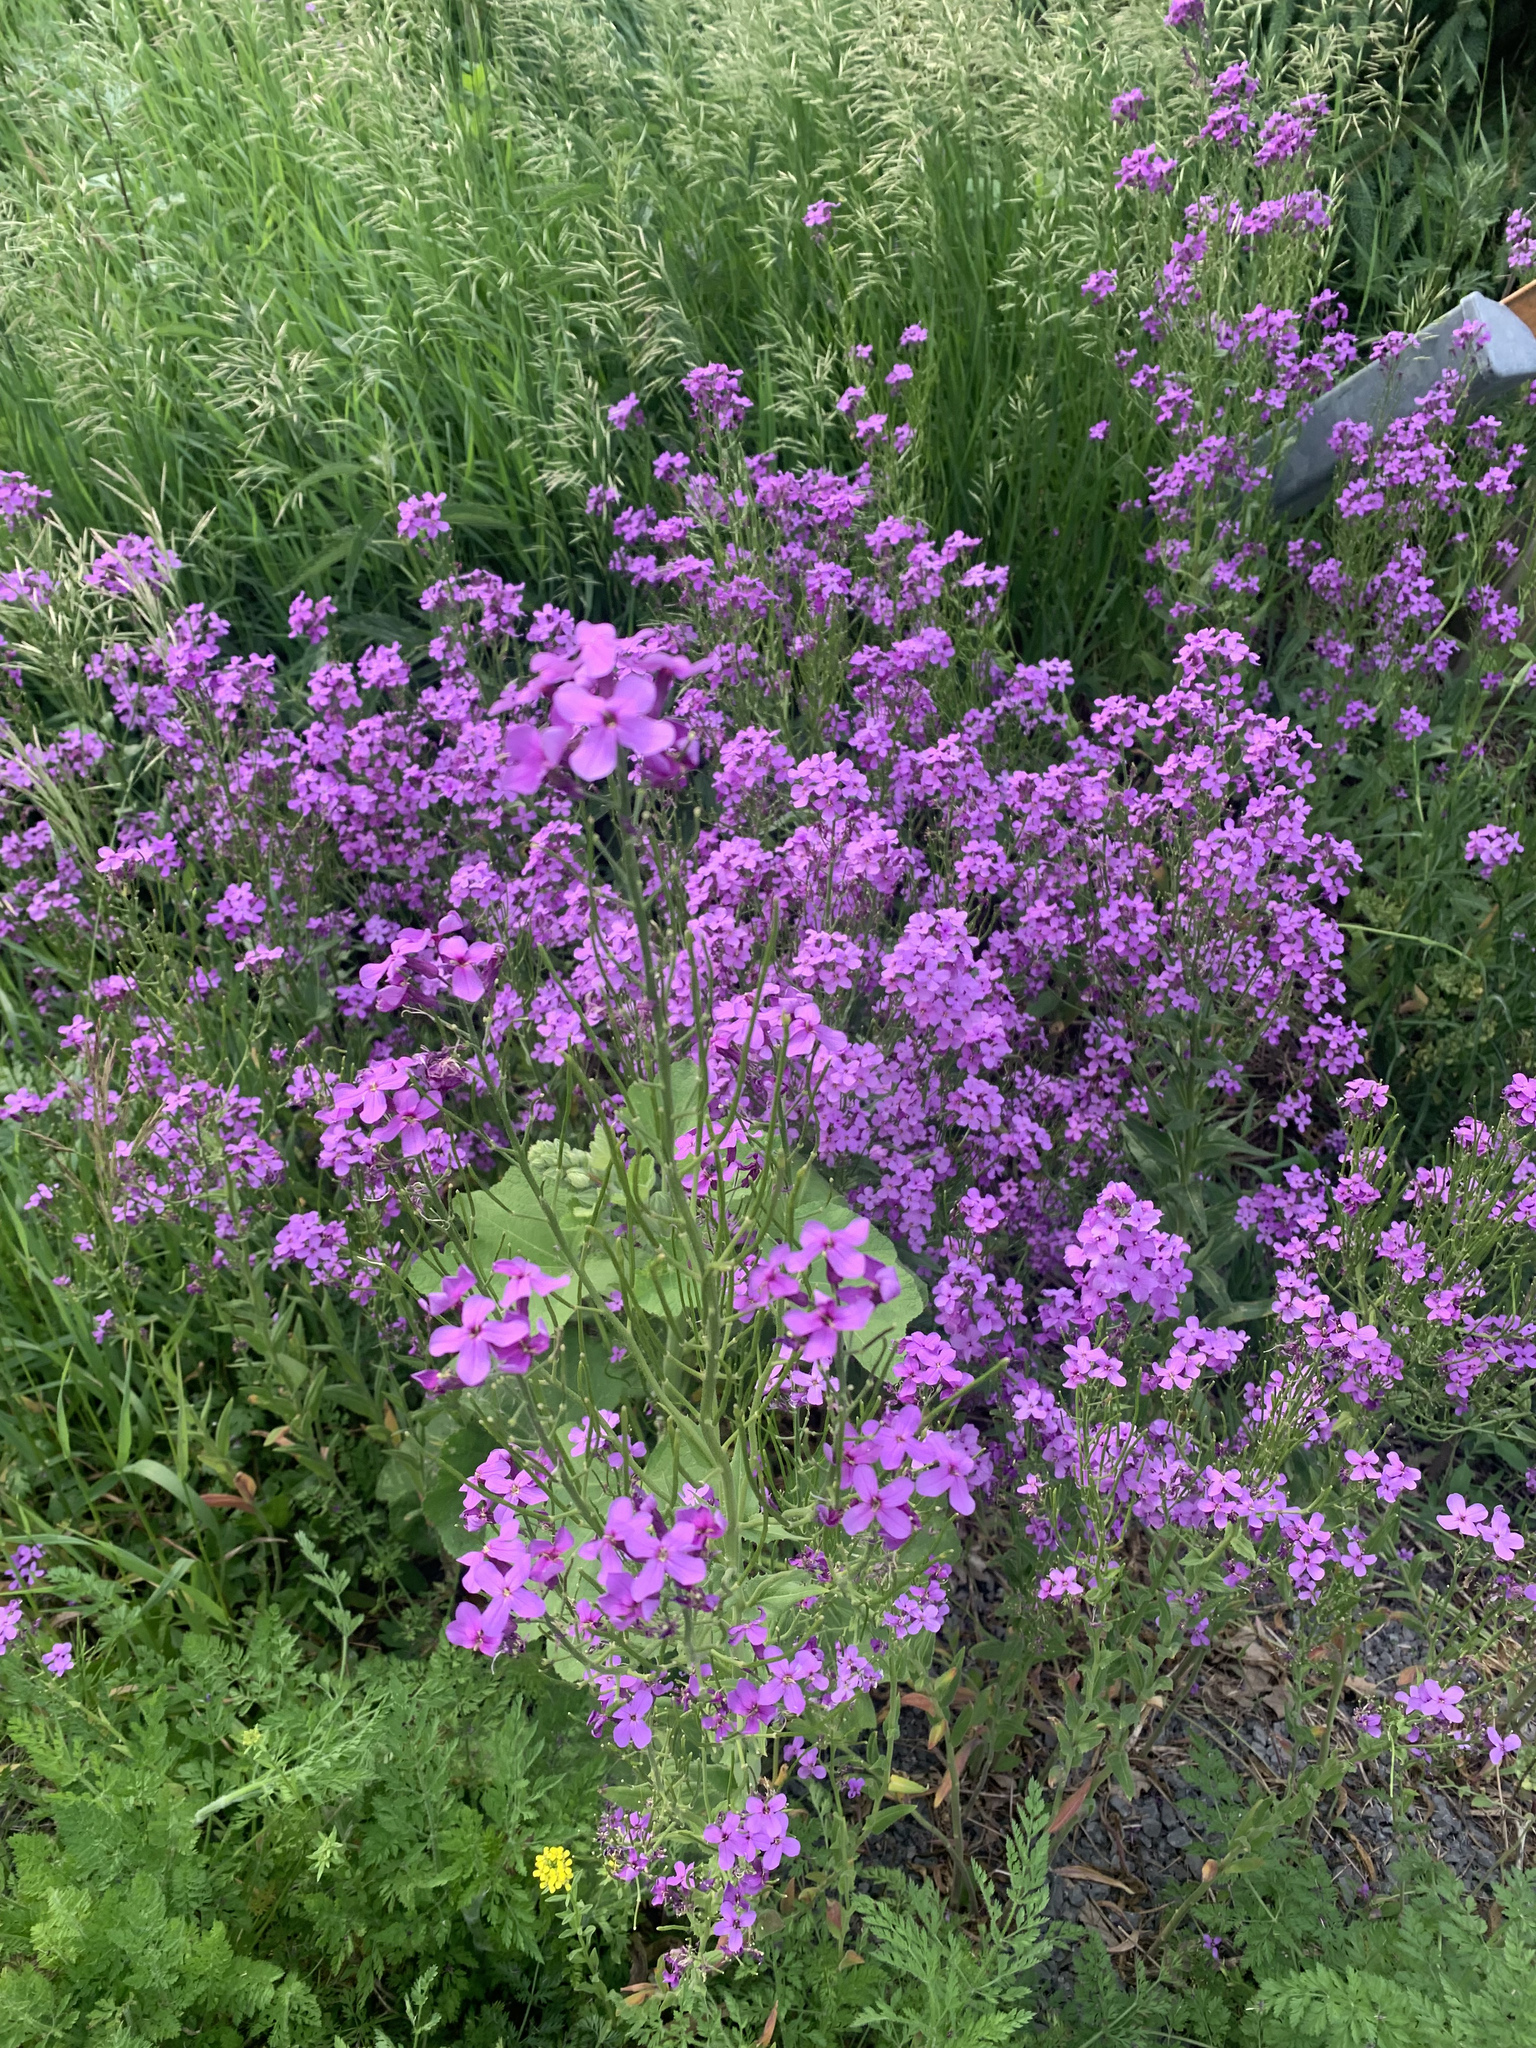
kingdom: Plantae
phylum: Tracheophyta
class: Magnoliopsida
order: Brassicales
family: Brassicaceae
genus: Hesperis
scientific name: Hesperis matronalis
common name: Dame's-violet
